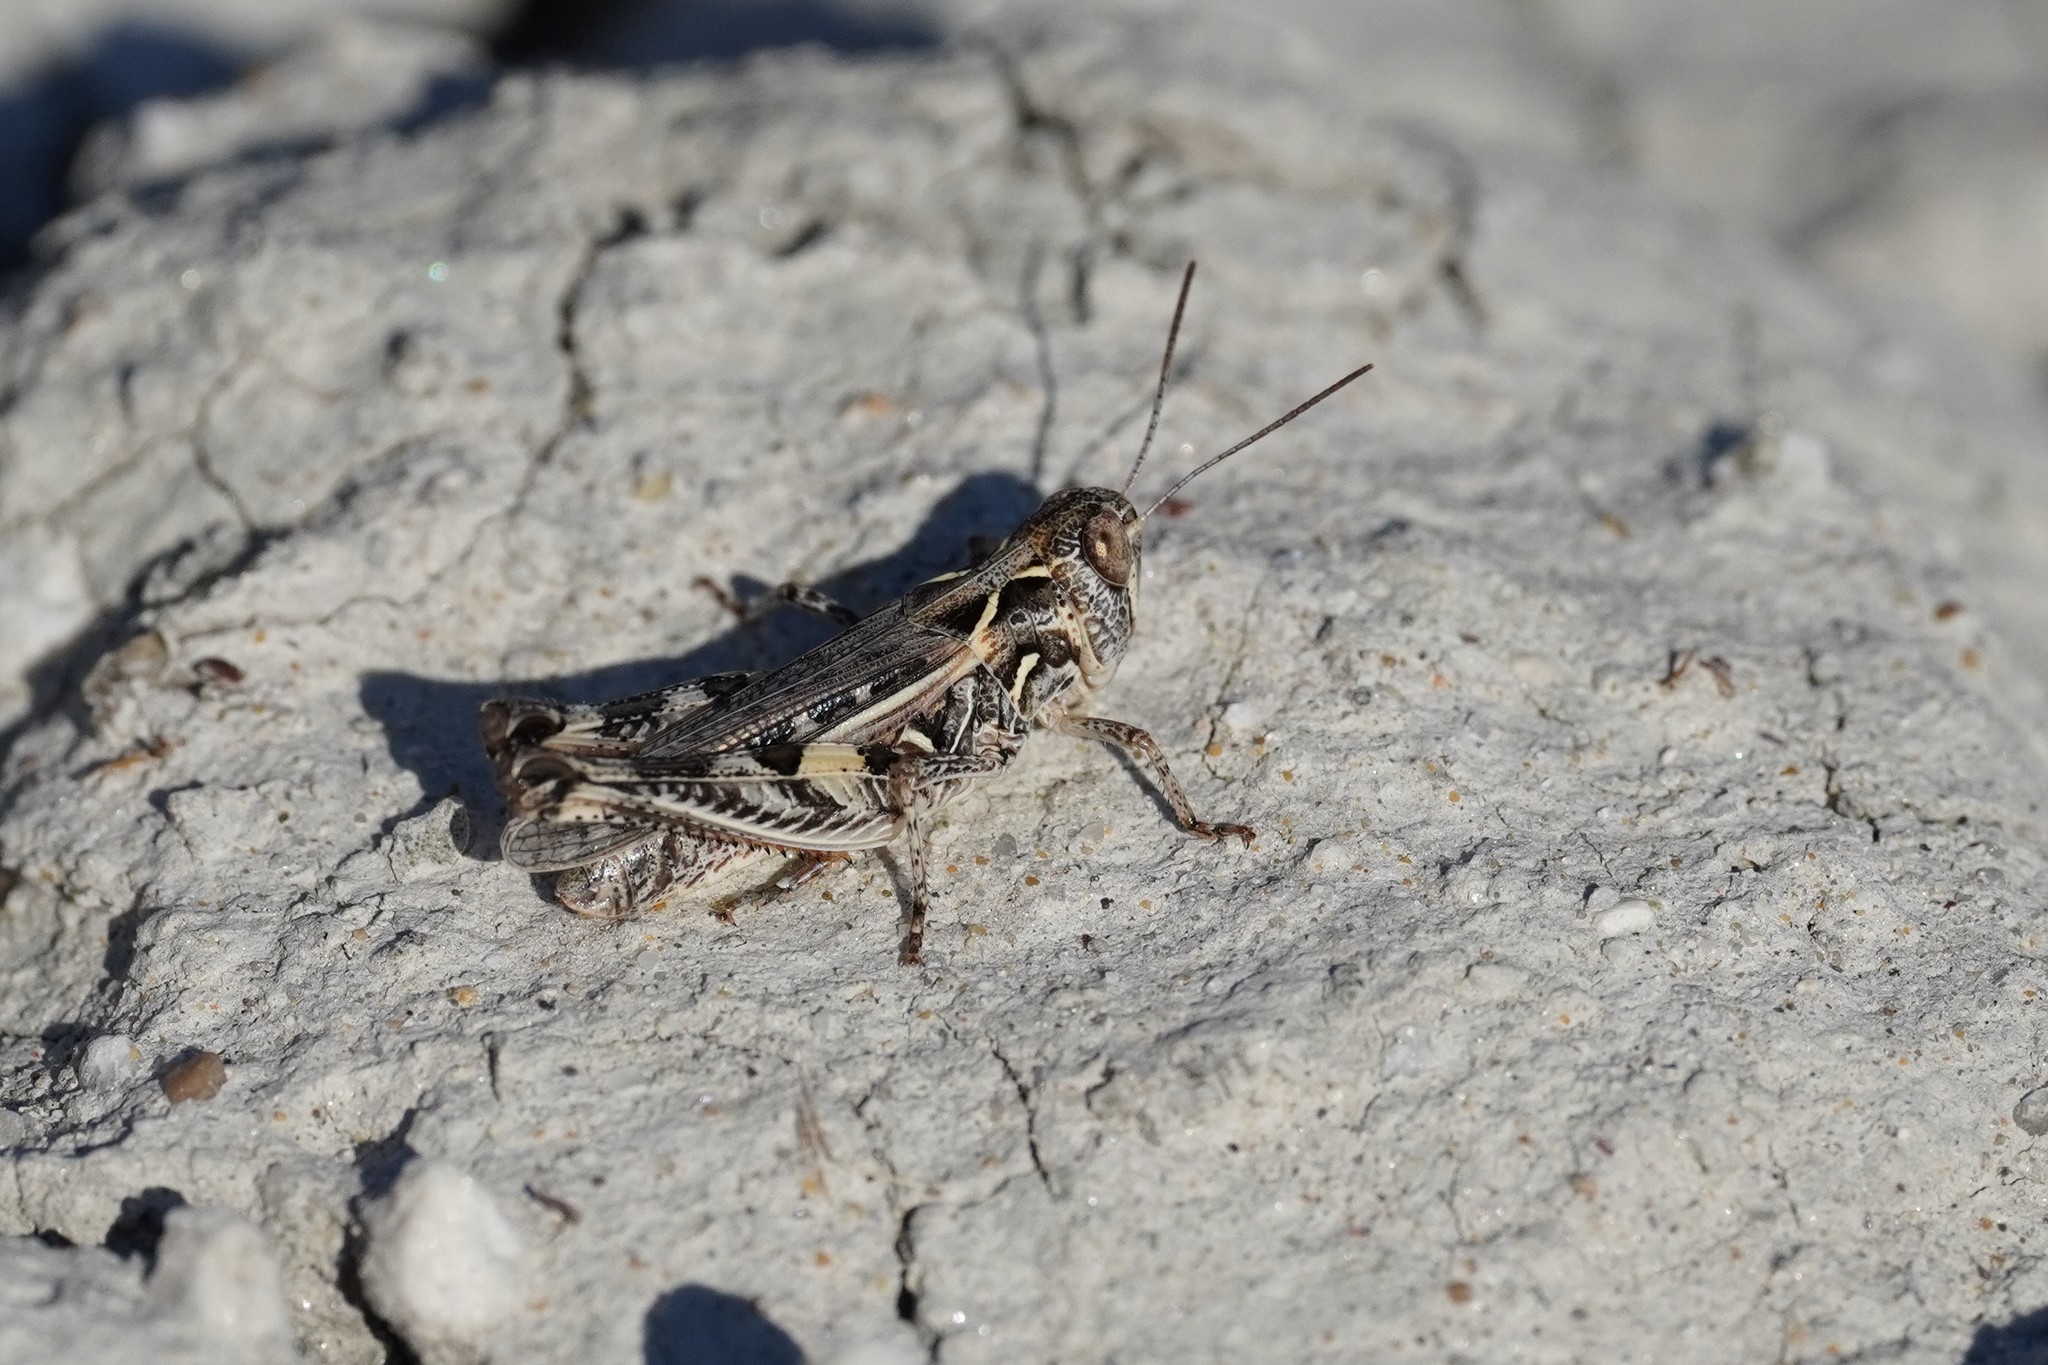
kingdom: Animalia
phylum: Arthropoda
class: Insecta
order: Orthoptera
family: Acrididae
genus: Dociostaurus
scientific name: Dociostaurus brevicollis
